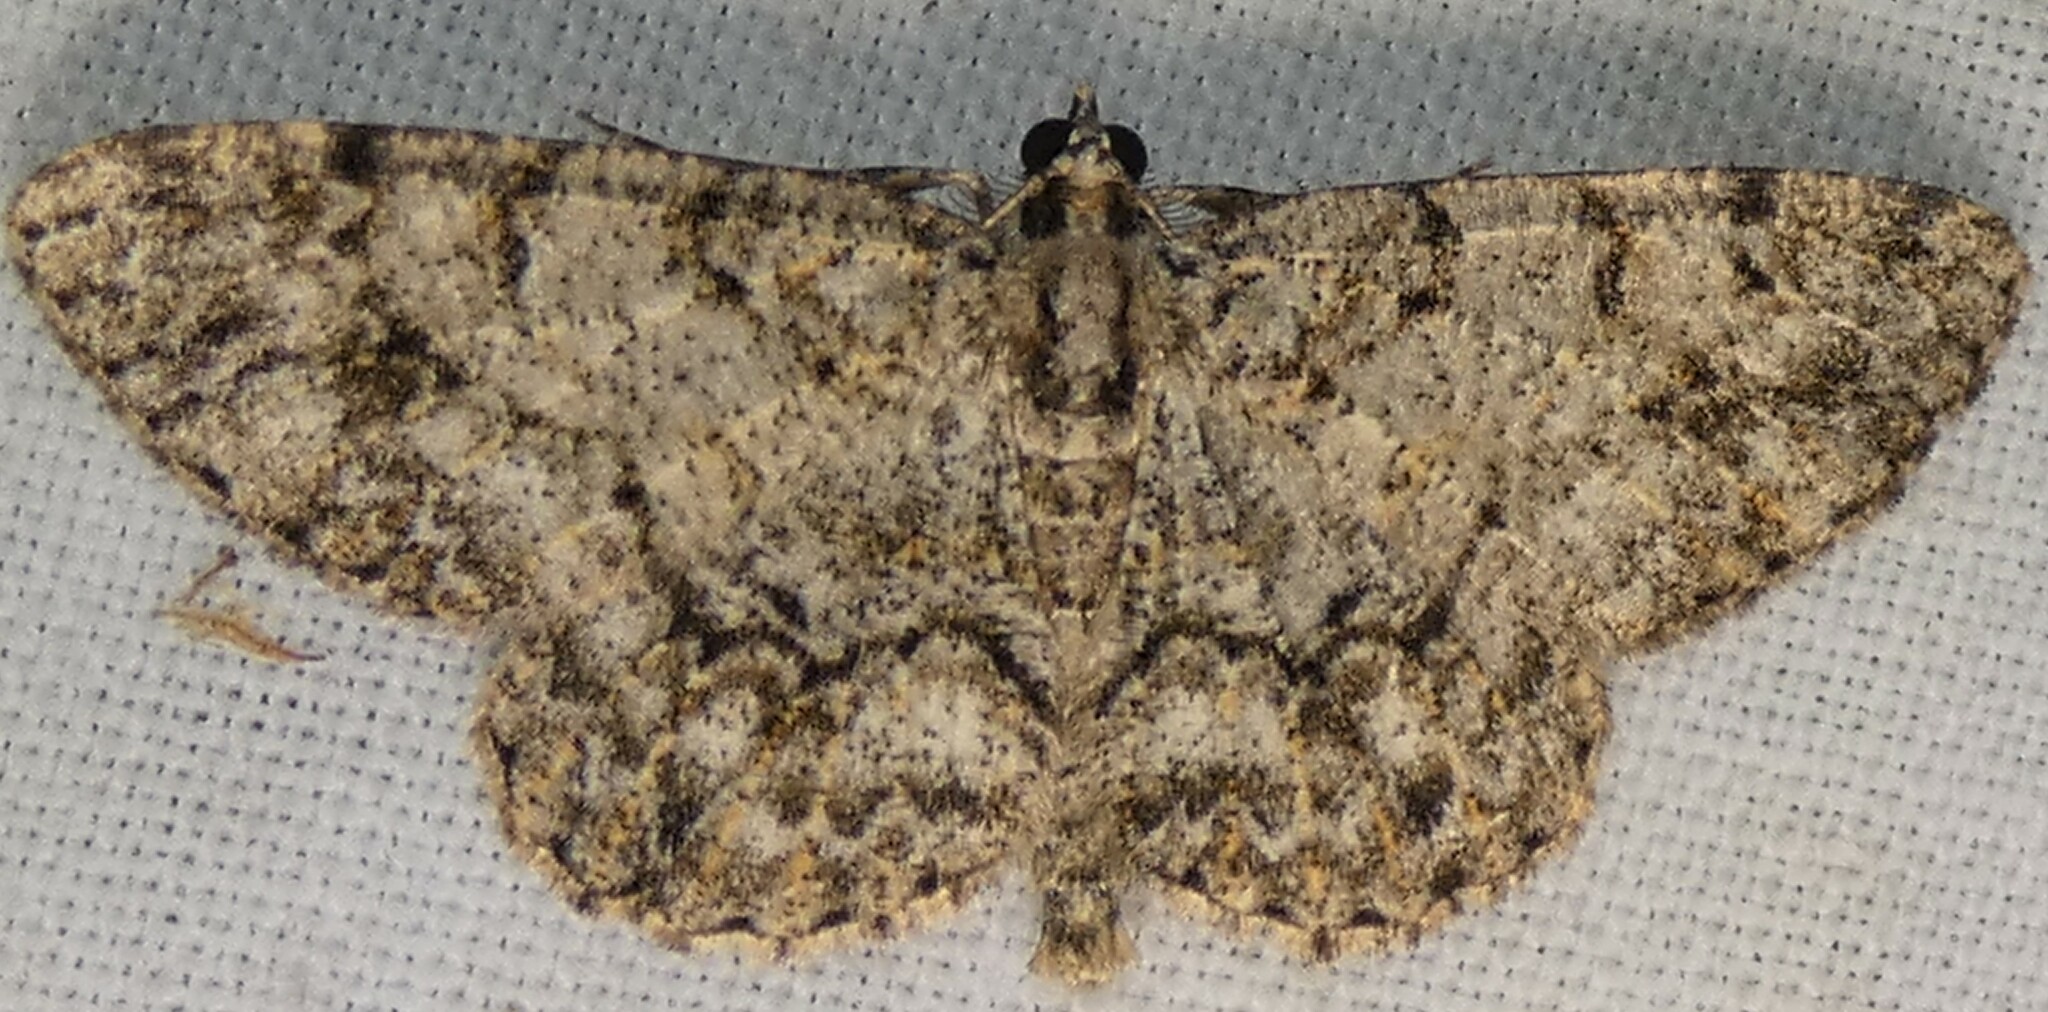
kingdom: Animalia
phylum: Arthropoda
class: Insecta
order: Lepidoptera
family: Geometridae
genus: Protoboarmia
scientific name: Protoboarmia porcelaria
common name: Porcelain gray
